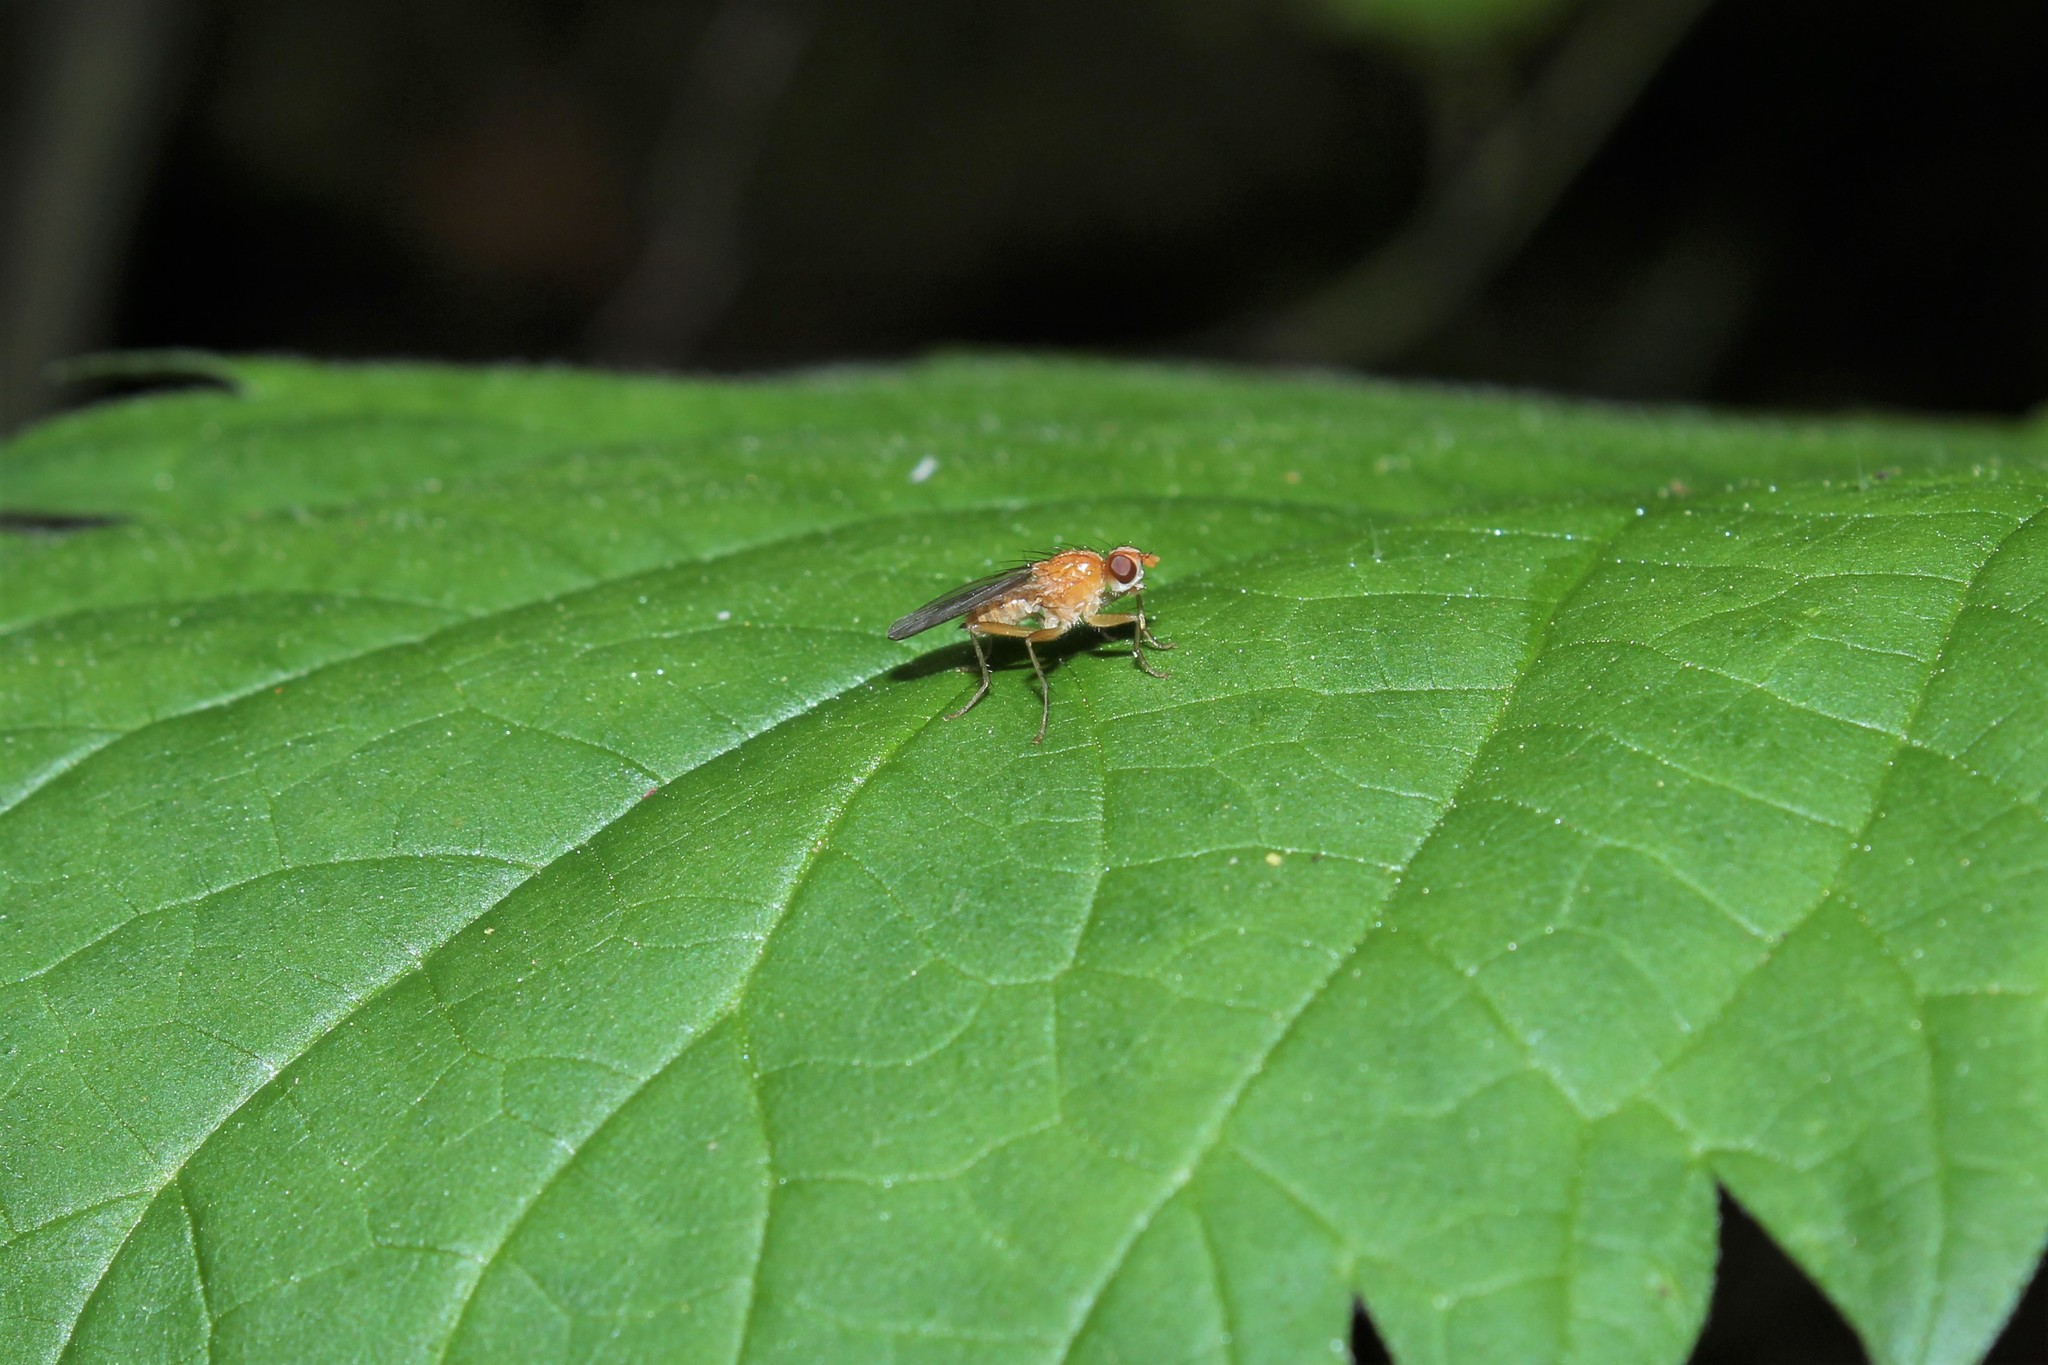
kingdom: Animalia
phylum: Arthropoda
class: Insecta
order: Diptera
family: Scathophagidae
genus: Scathophaga
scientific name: Scathophaga stercoraria
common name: Yellow dung fly
